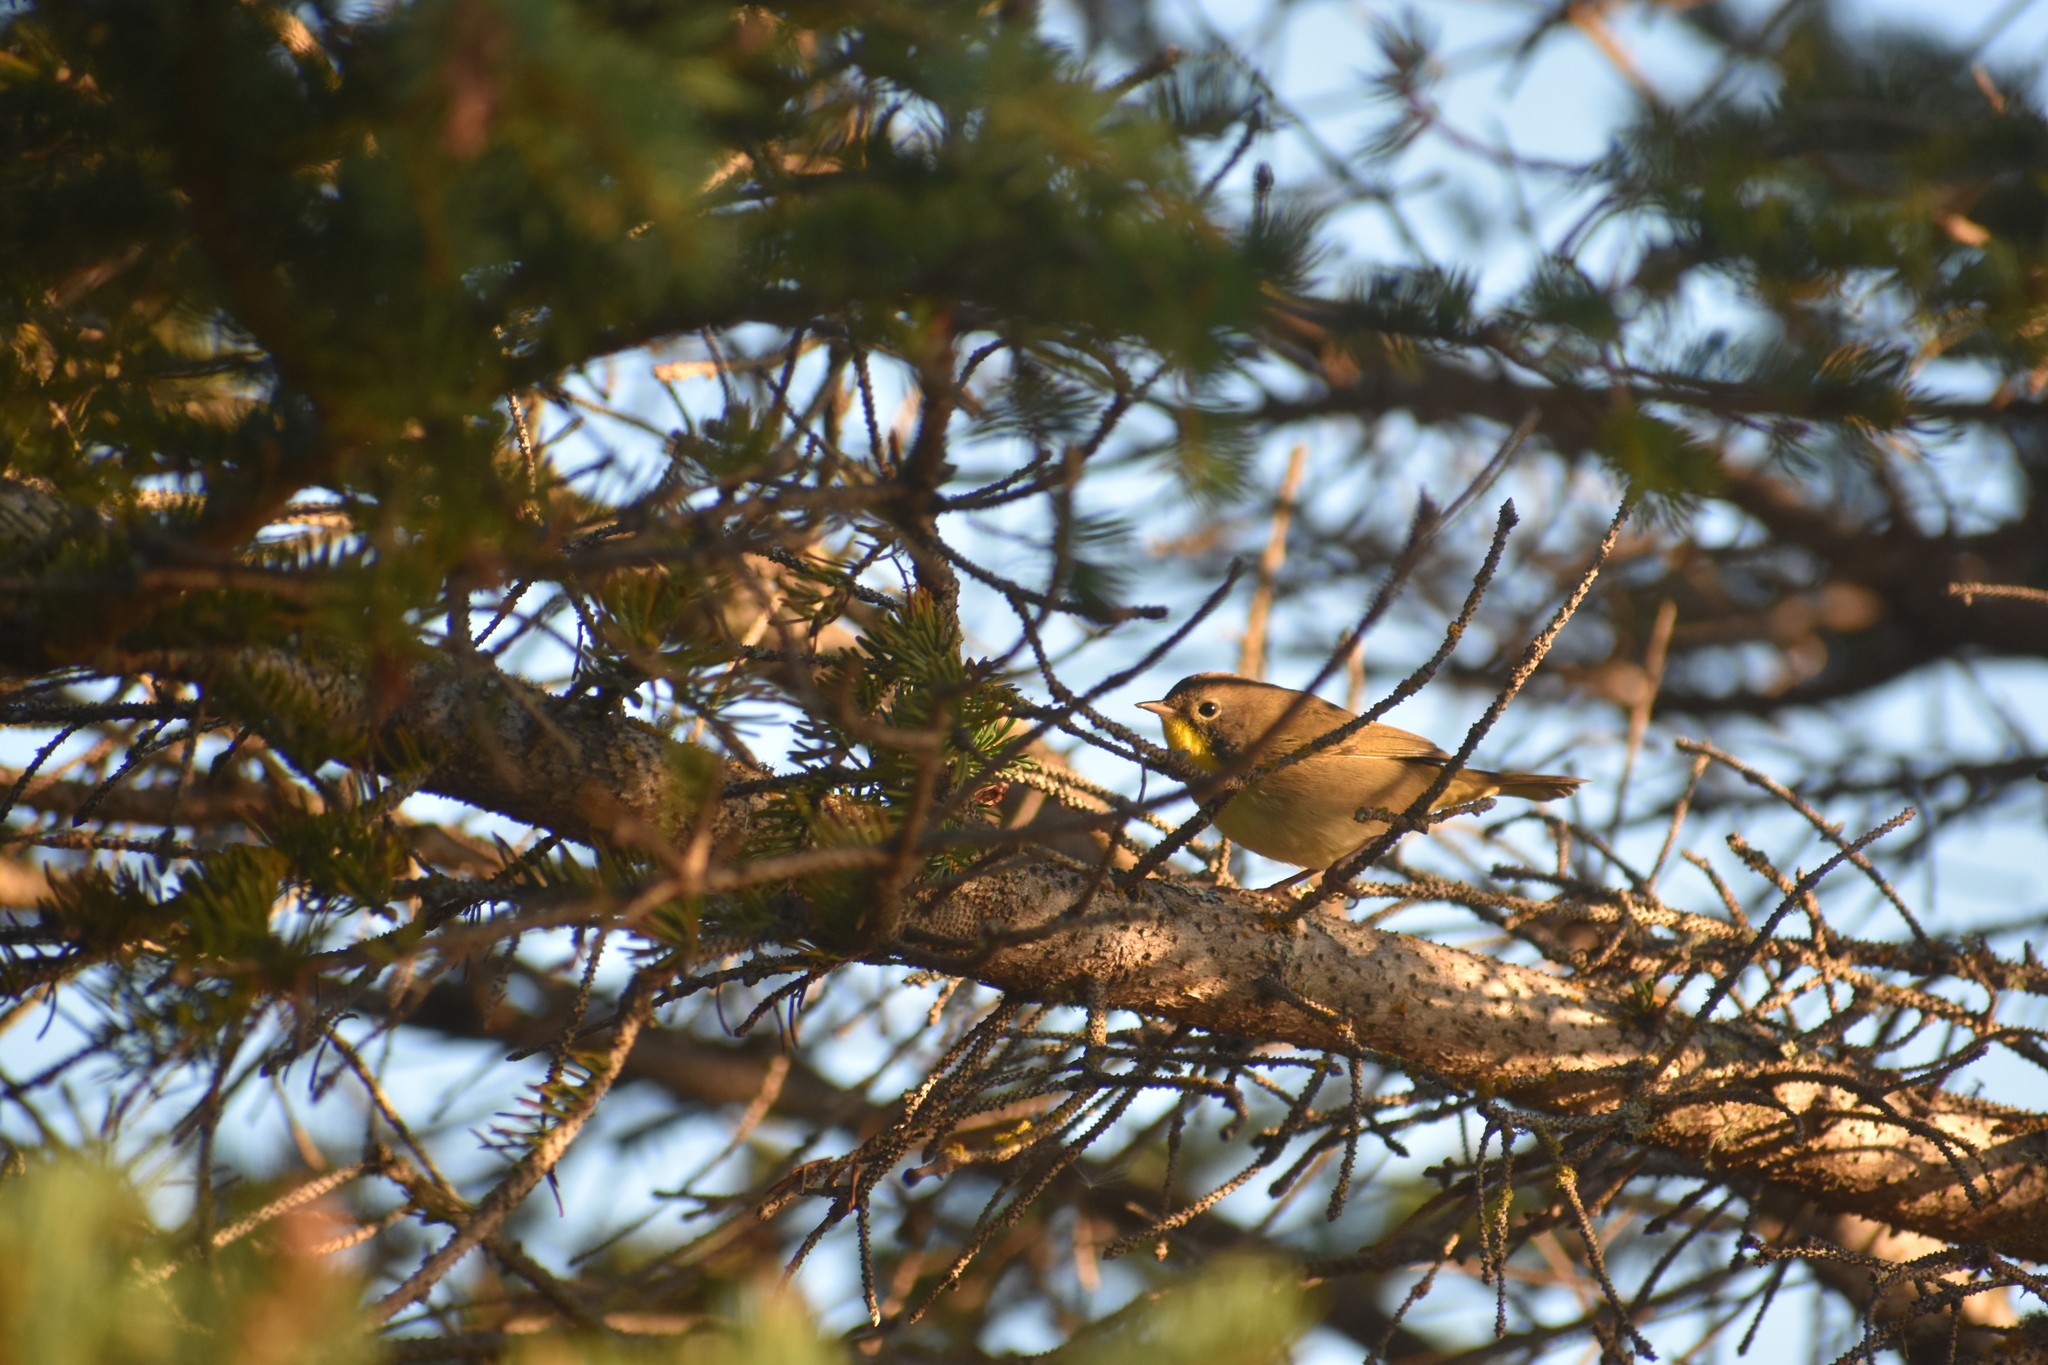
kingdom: Animalia
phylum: Chordata
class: Aves
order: Passeriformes
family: Parulidae
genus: Geothlypis
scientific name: Geothlypis trichas
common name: Common yellowthroat
